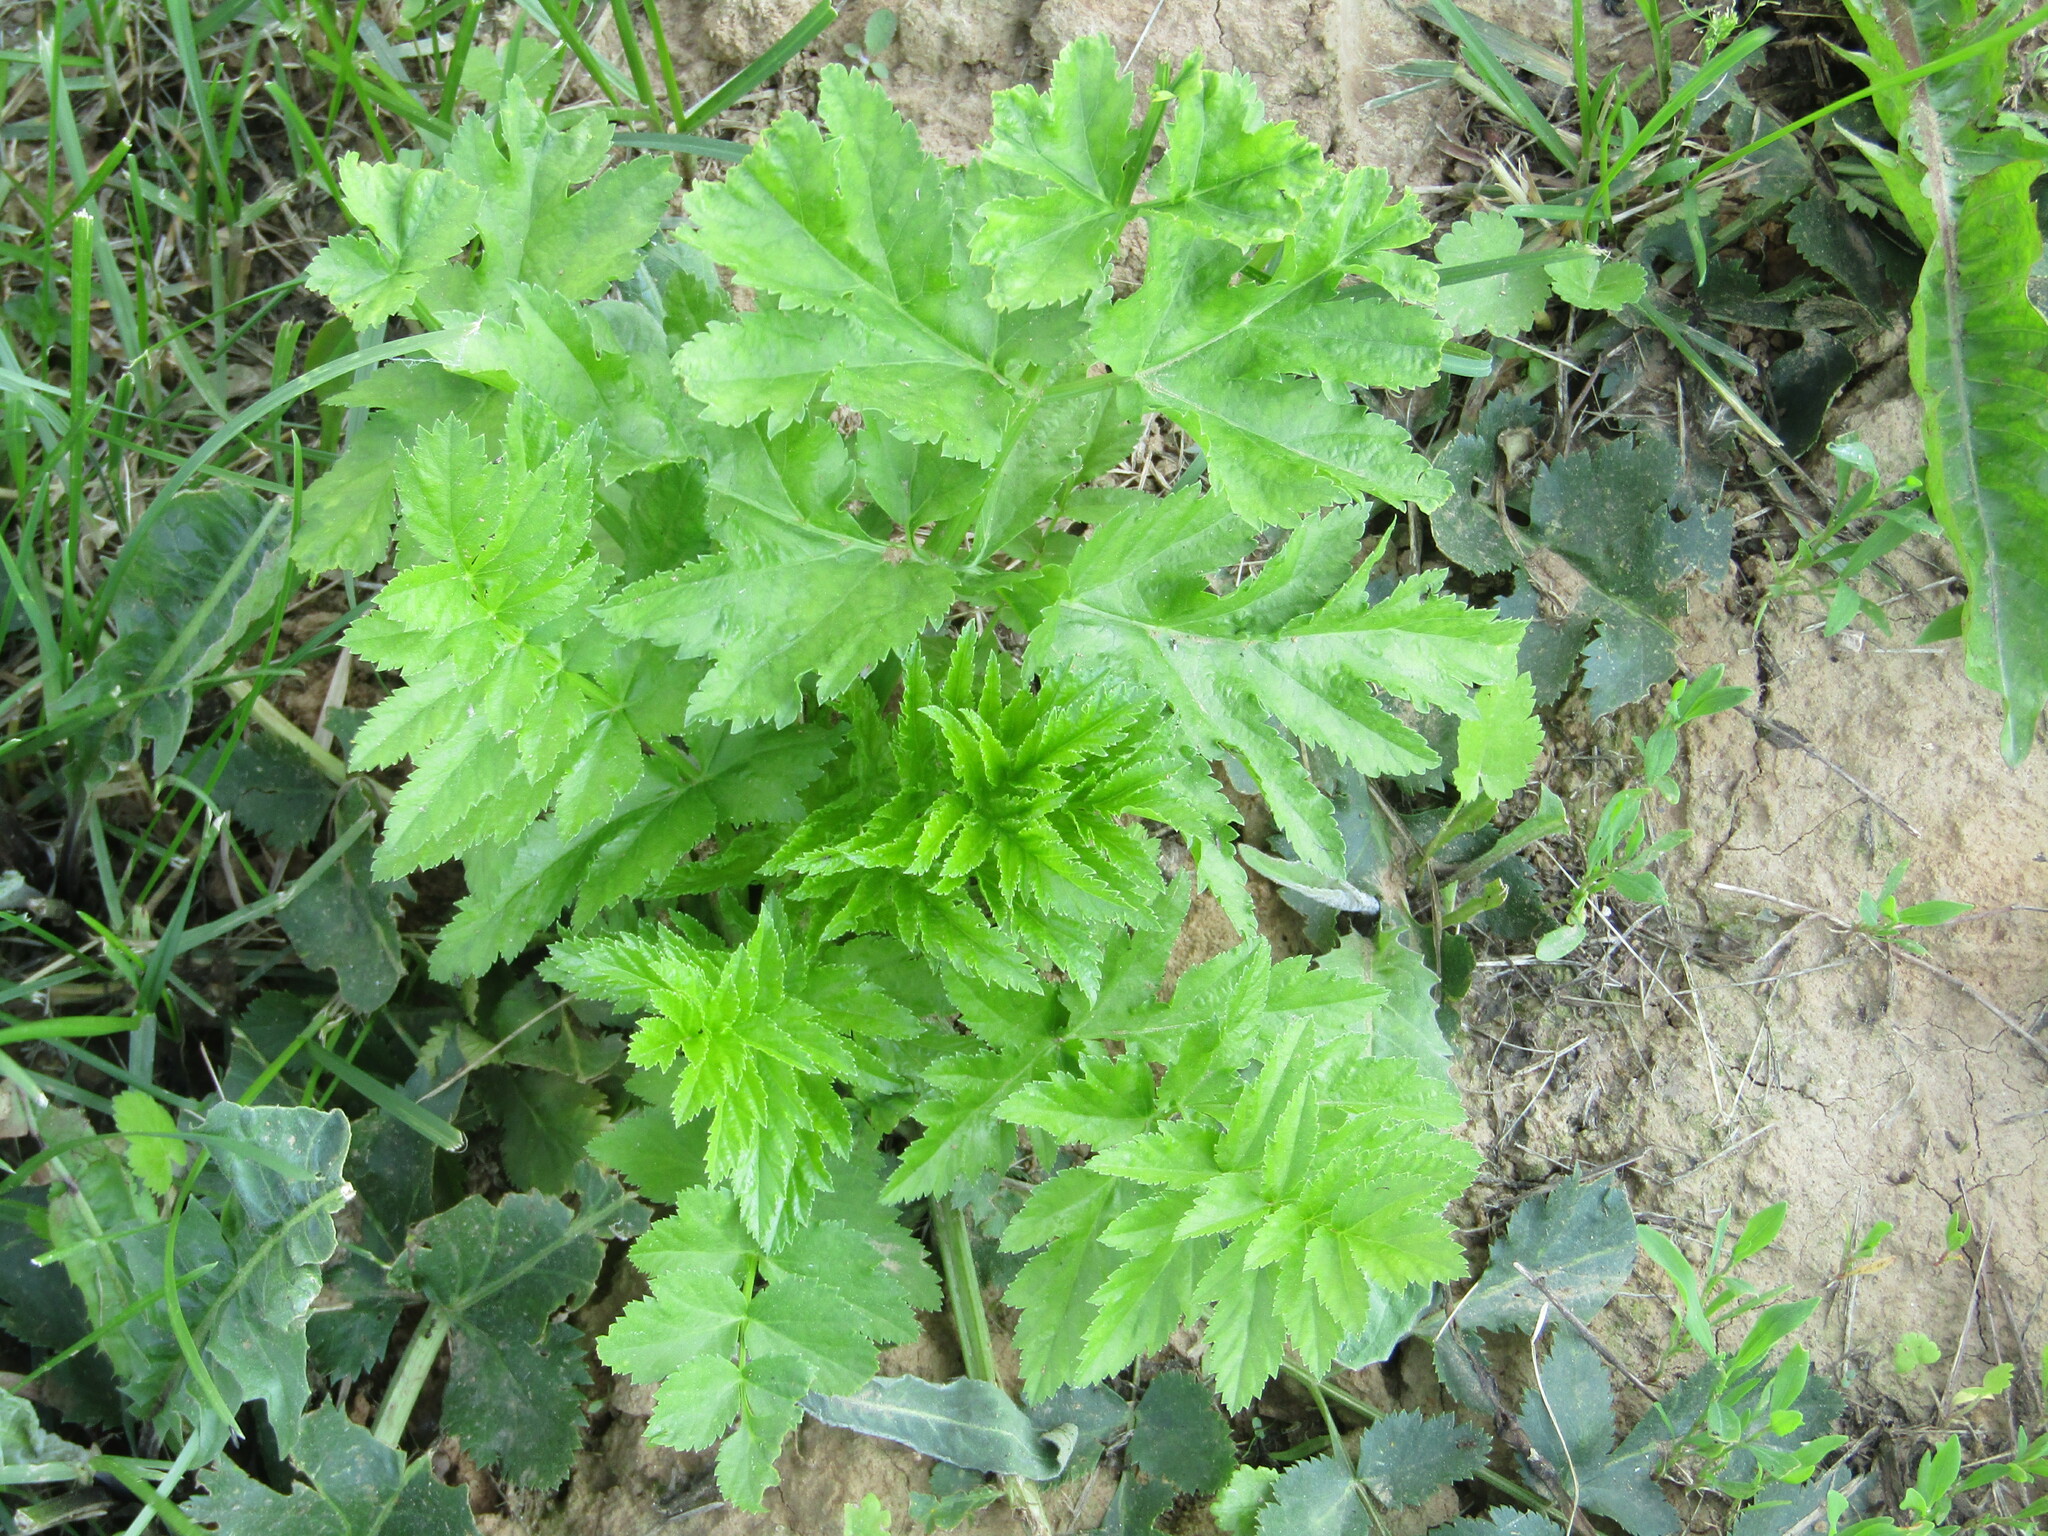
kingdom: Plantae
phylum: Tracheophyta
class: Magnoliopsida
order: Apiales
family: Apiaceae
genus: Pastinaca
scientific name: Pastinaca sativa
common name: Wild parsnip
